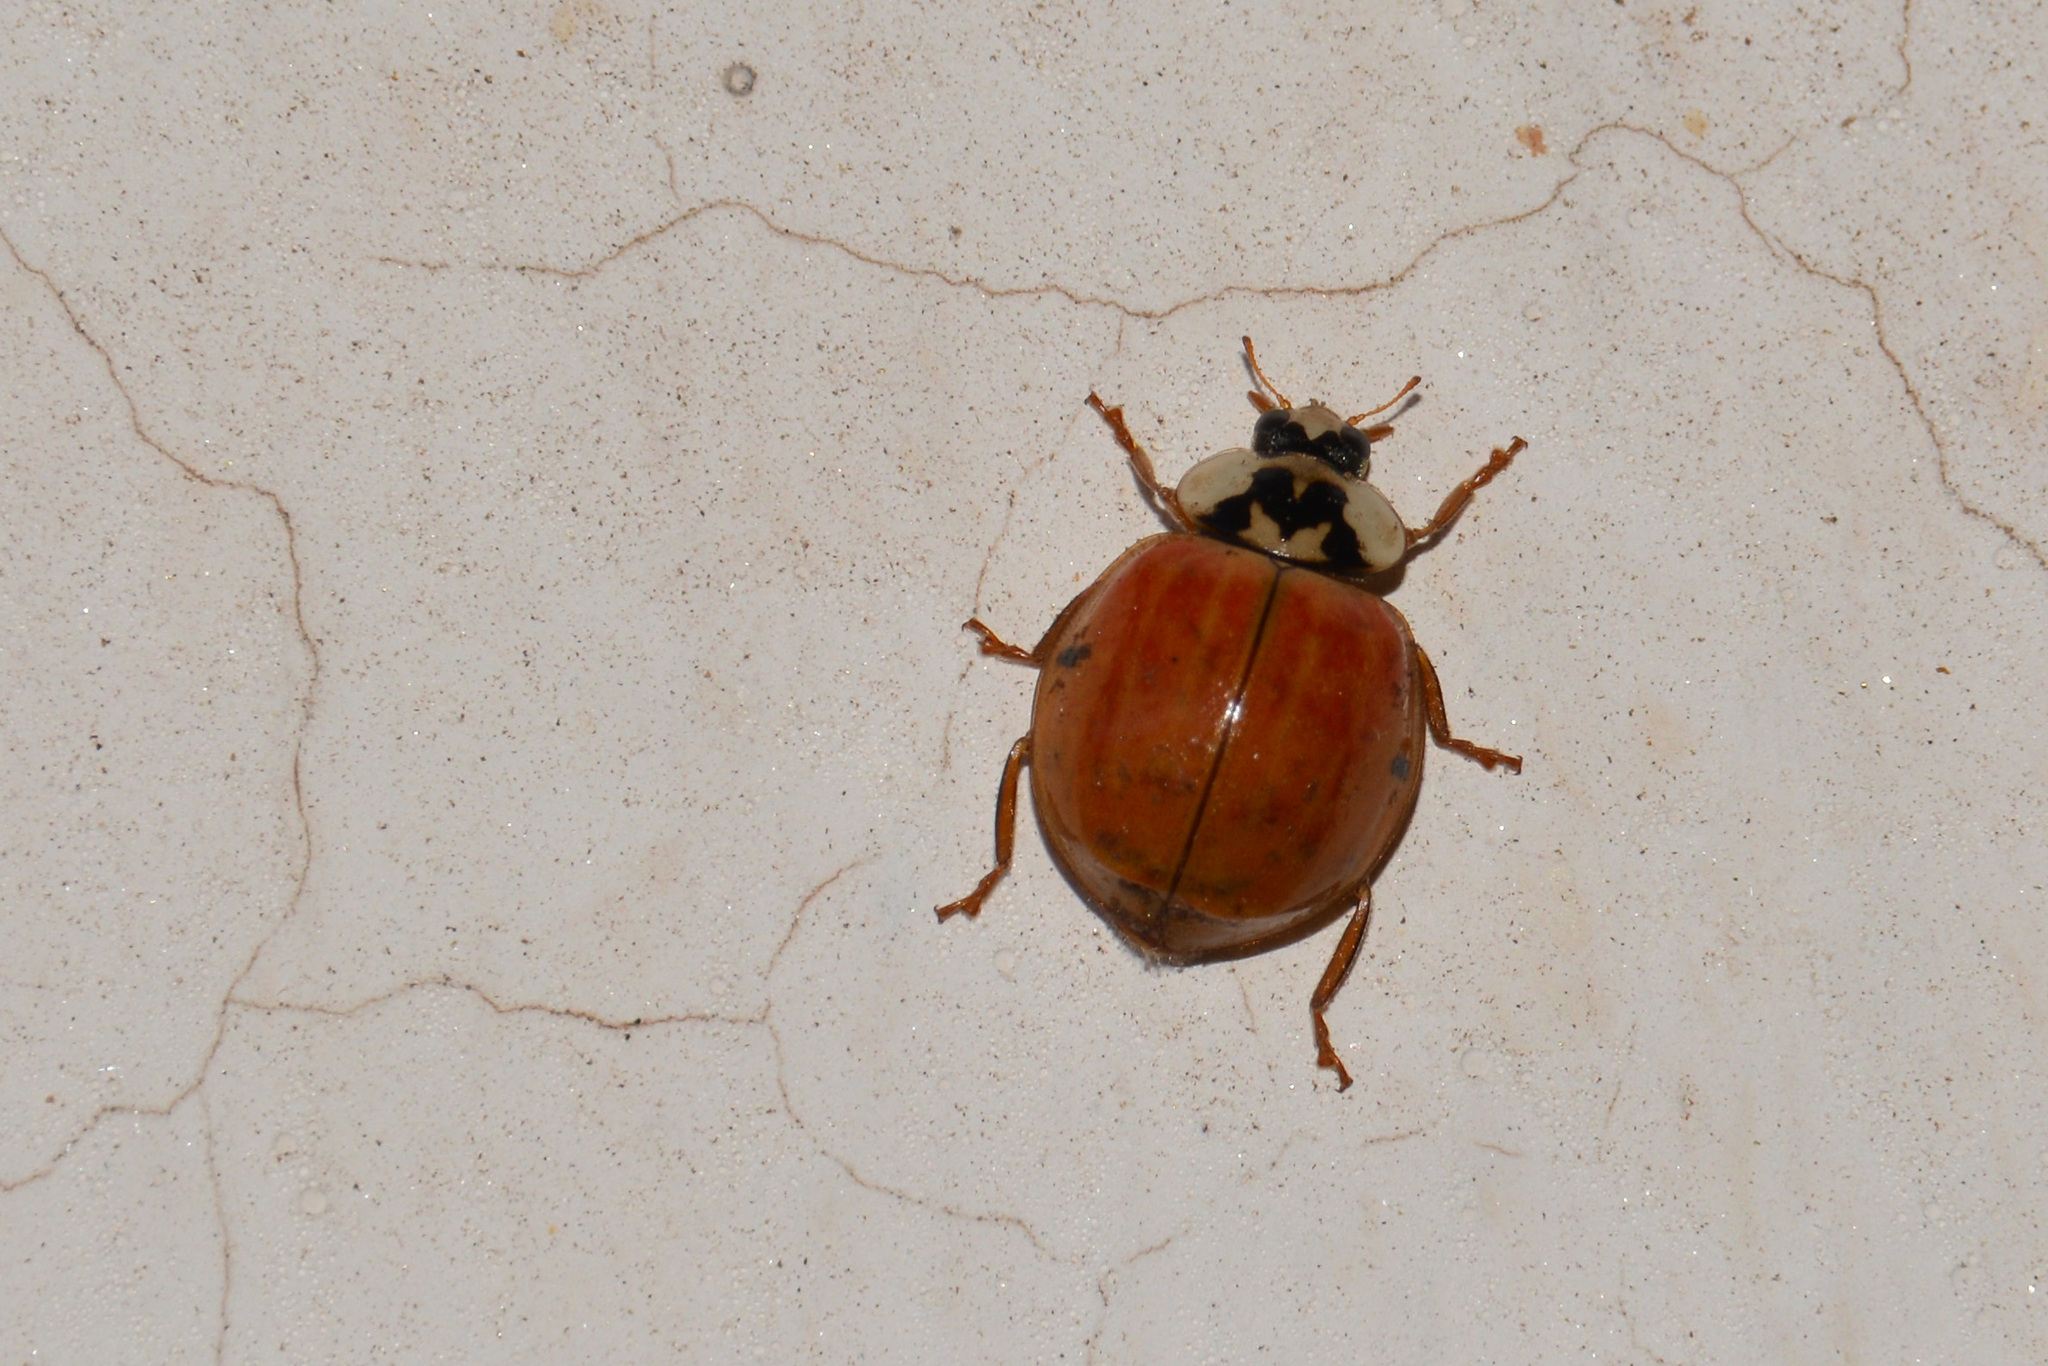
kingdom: Animalia
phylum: Arthropoda
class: Insecta
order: Coleoptera
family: Coccinellidae
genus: Harmonia
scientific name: Harmonia axyridis
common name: Harlequin ladybird
